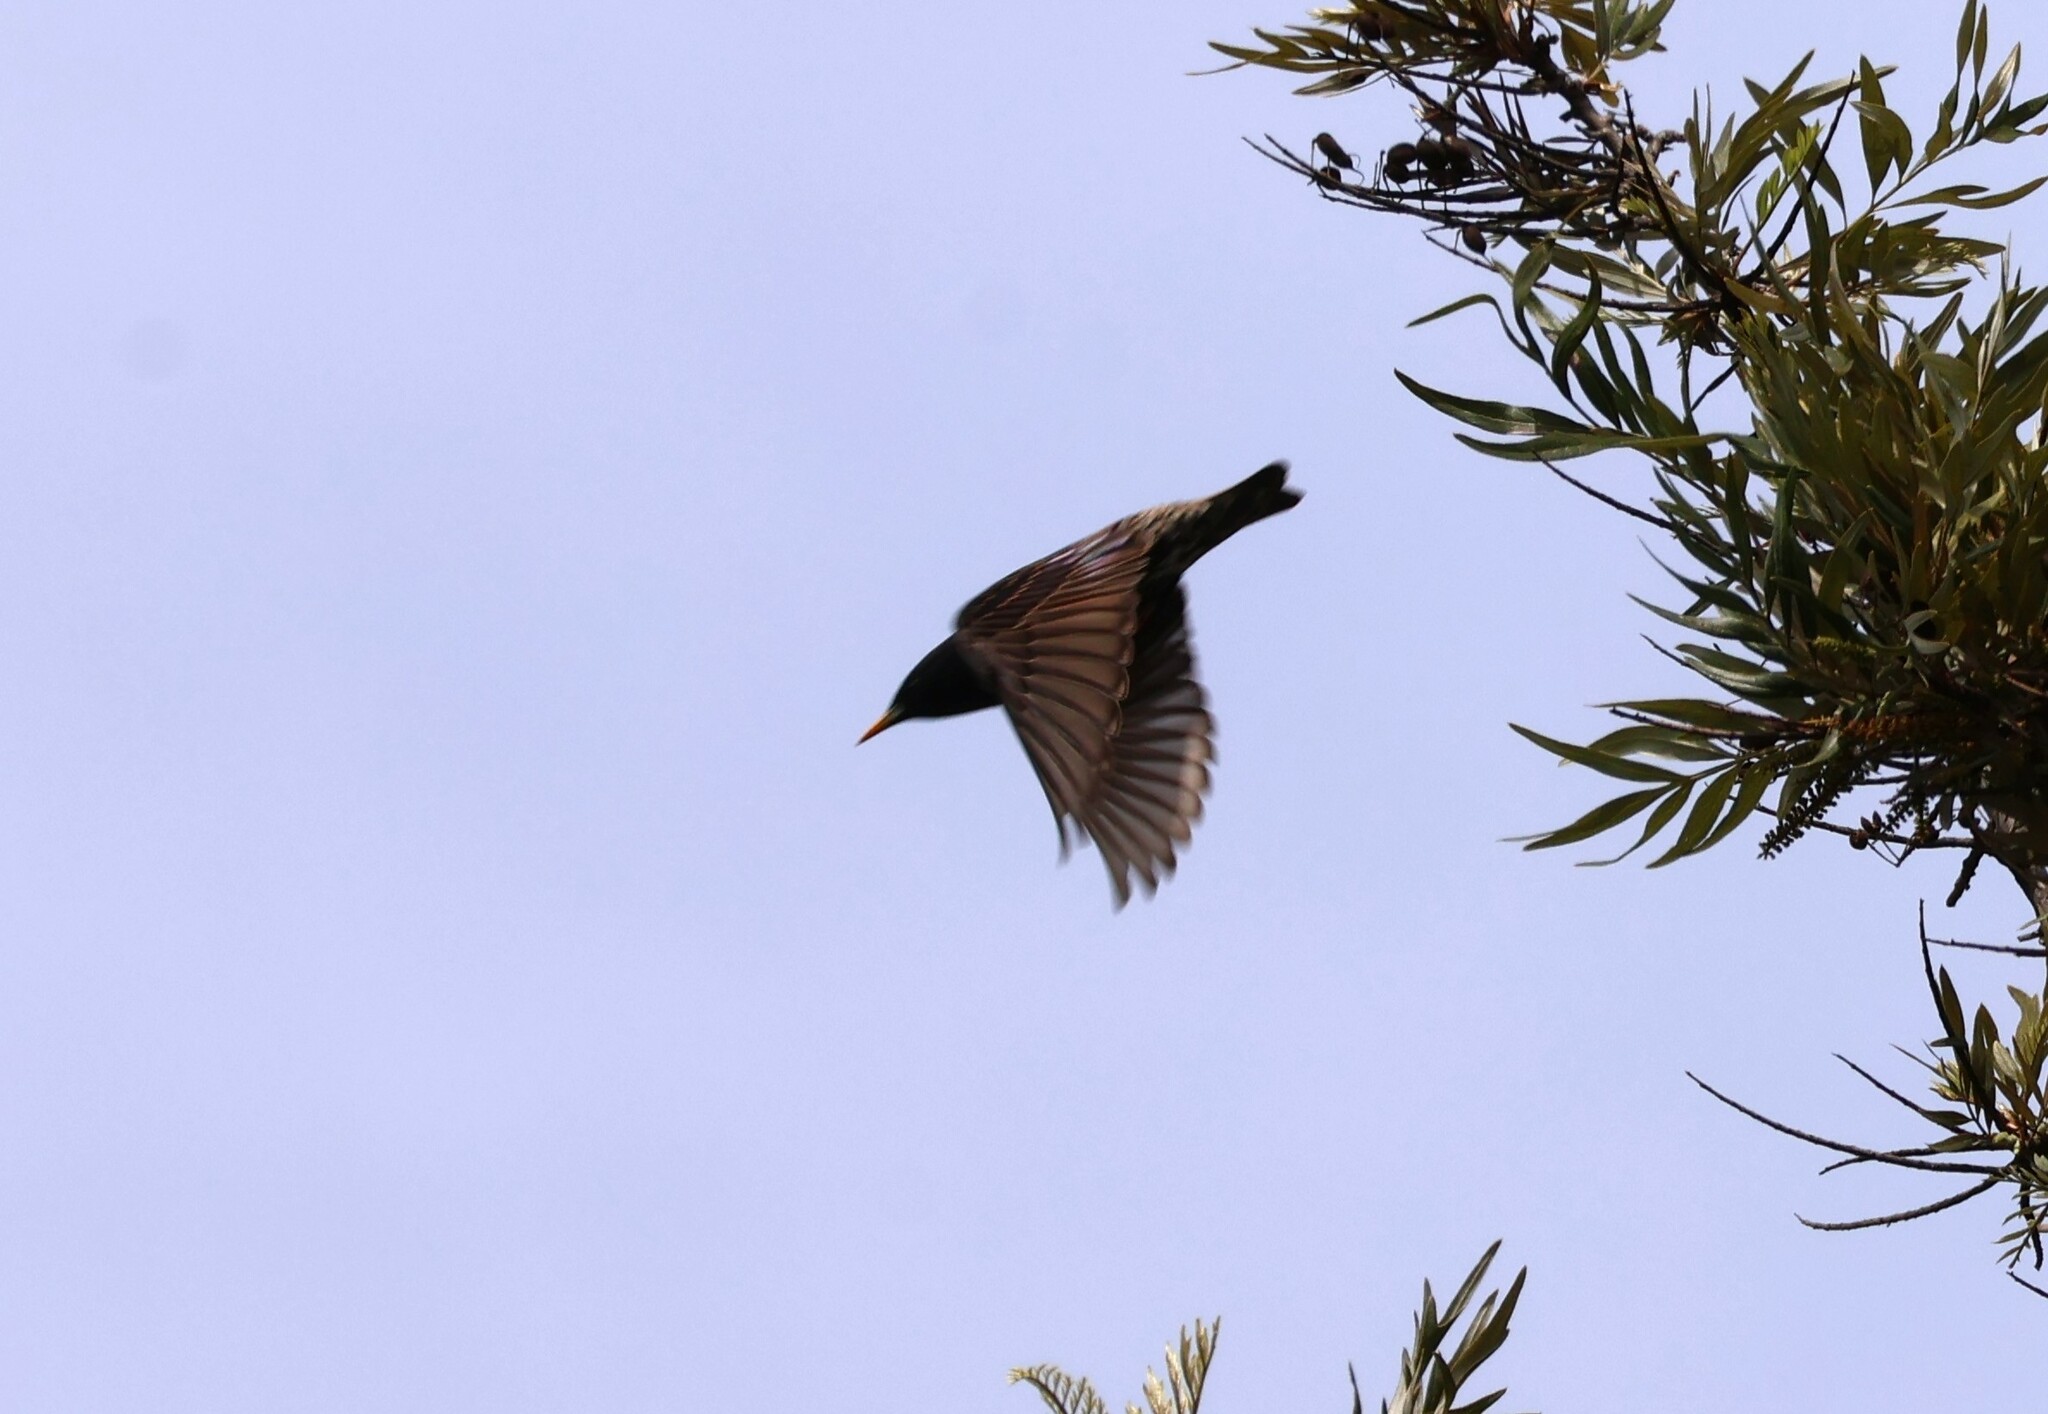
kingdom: Animalia
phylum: Chordata
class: Aves
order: Passeriformes
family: Sturnidae
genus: Sturnus
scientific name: Sturnus vulgaris
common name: Common starling
